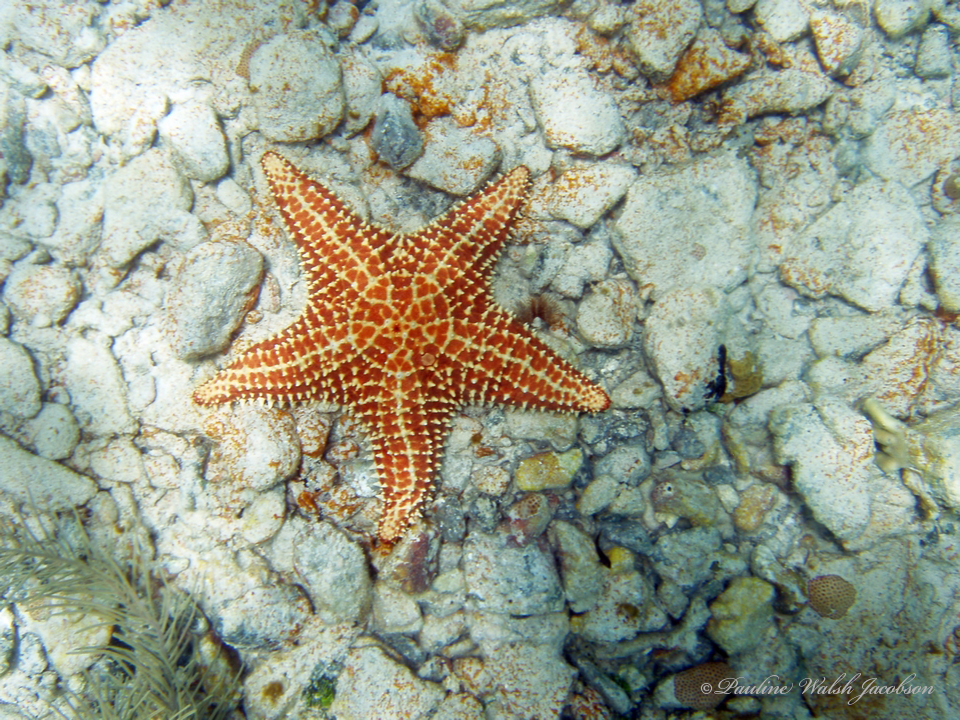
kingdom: Animalia
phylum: Echinodermata
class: Asteroidea
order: Valvatida
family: Oreasteridae
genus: Oreaster
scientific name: Oreaster reticulatus
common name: Cushion sea star
